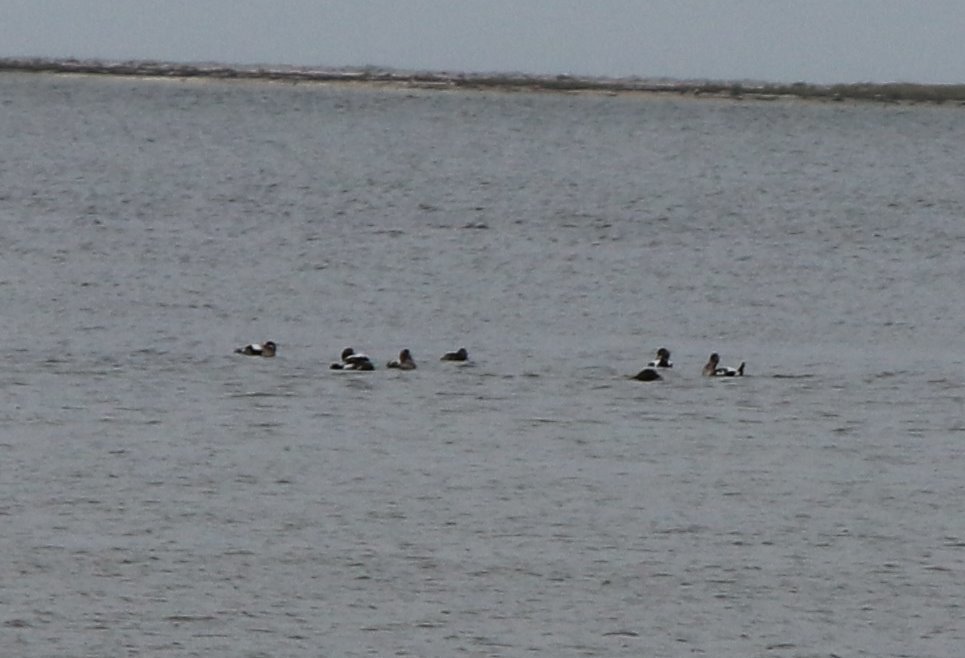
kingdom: Animalia
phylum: Chordata
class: Aves
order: Anseriformes
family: Anatidae
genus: Somateria
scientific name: Somateria mollissima
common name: Common eider
